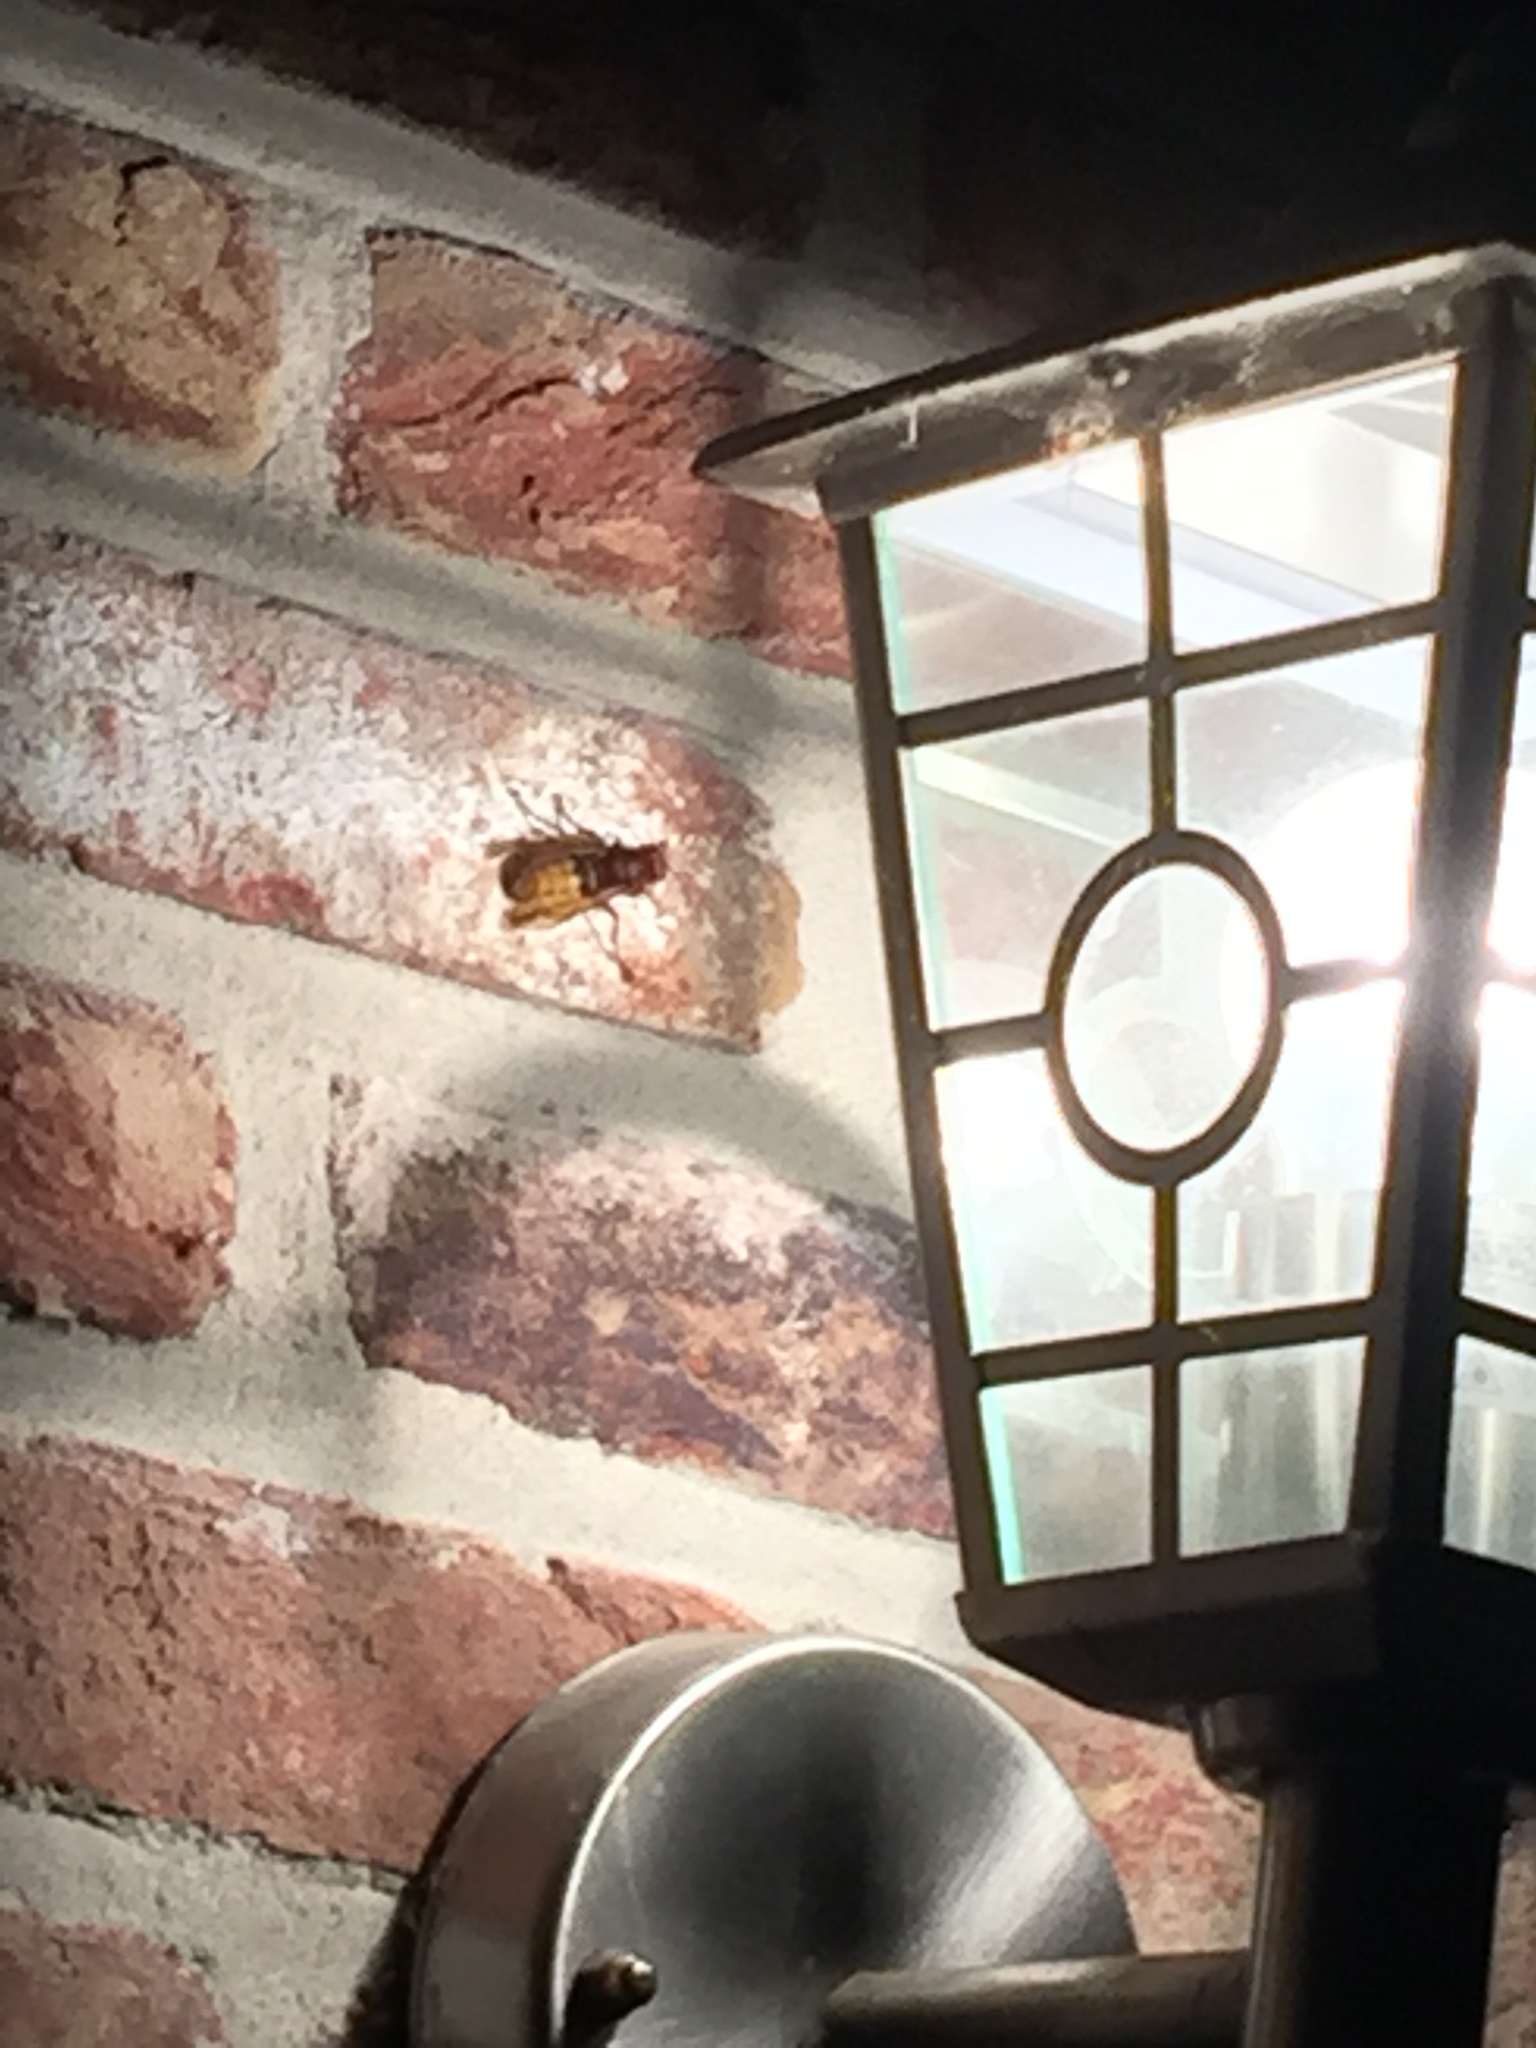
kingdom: Animalia
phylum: Arthropoda
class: Insecta
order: Hymenoptera
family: Vespidae
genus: Vespa
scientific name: Vespa crabro
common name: Hornet
